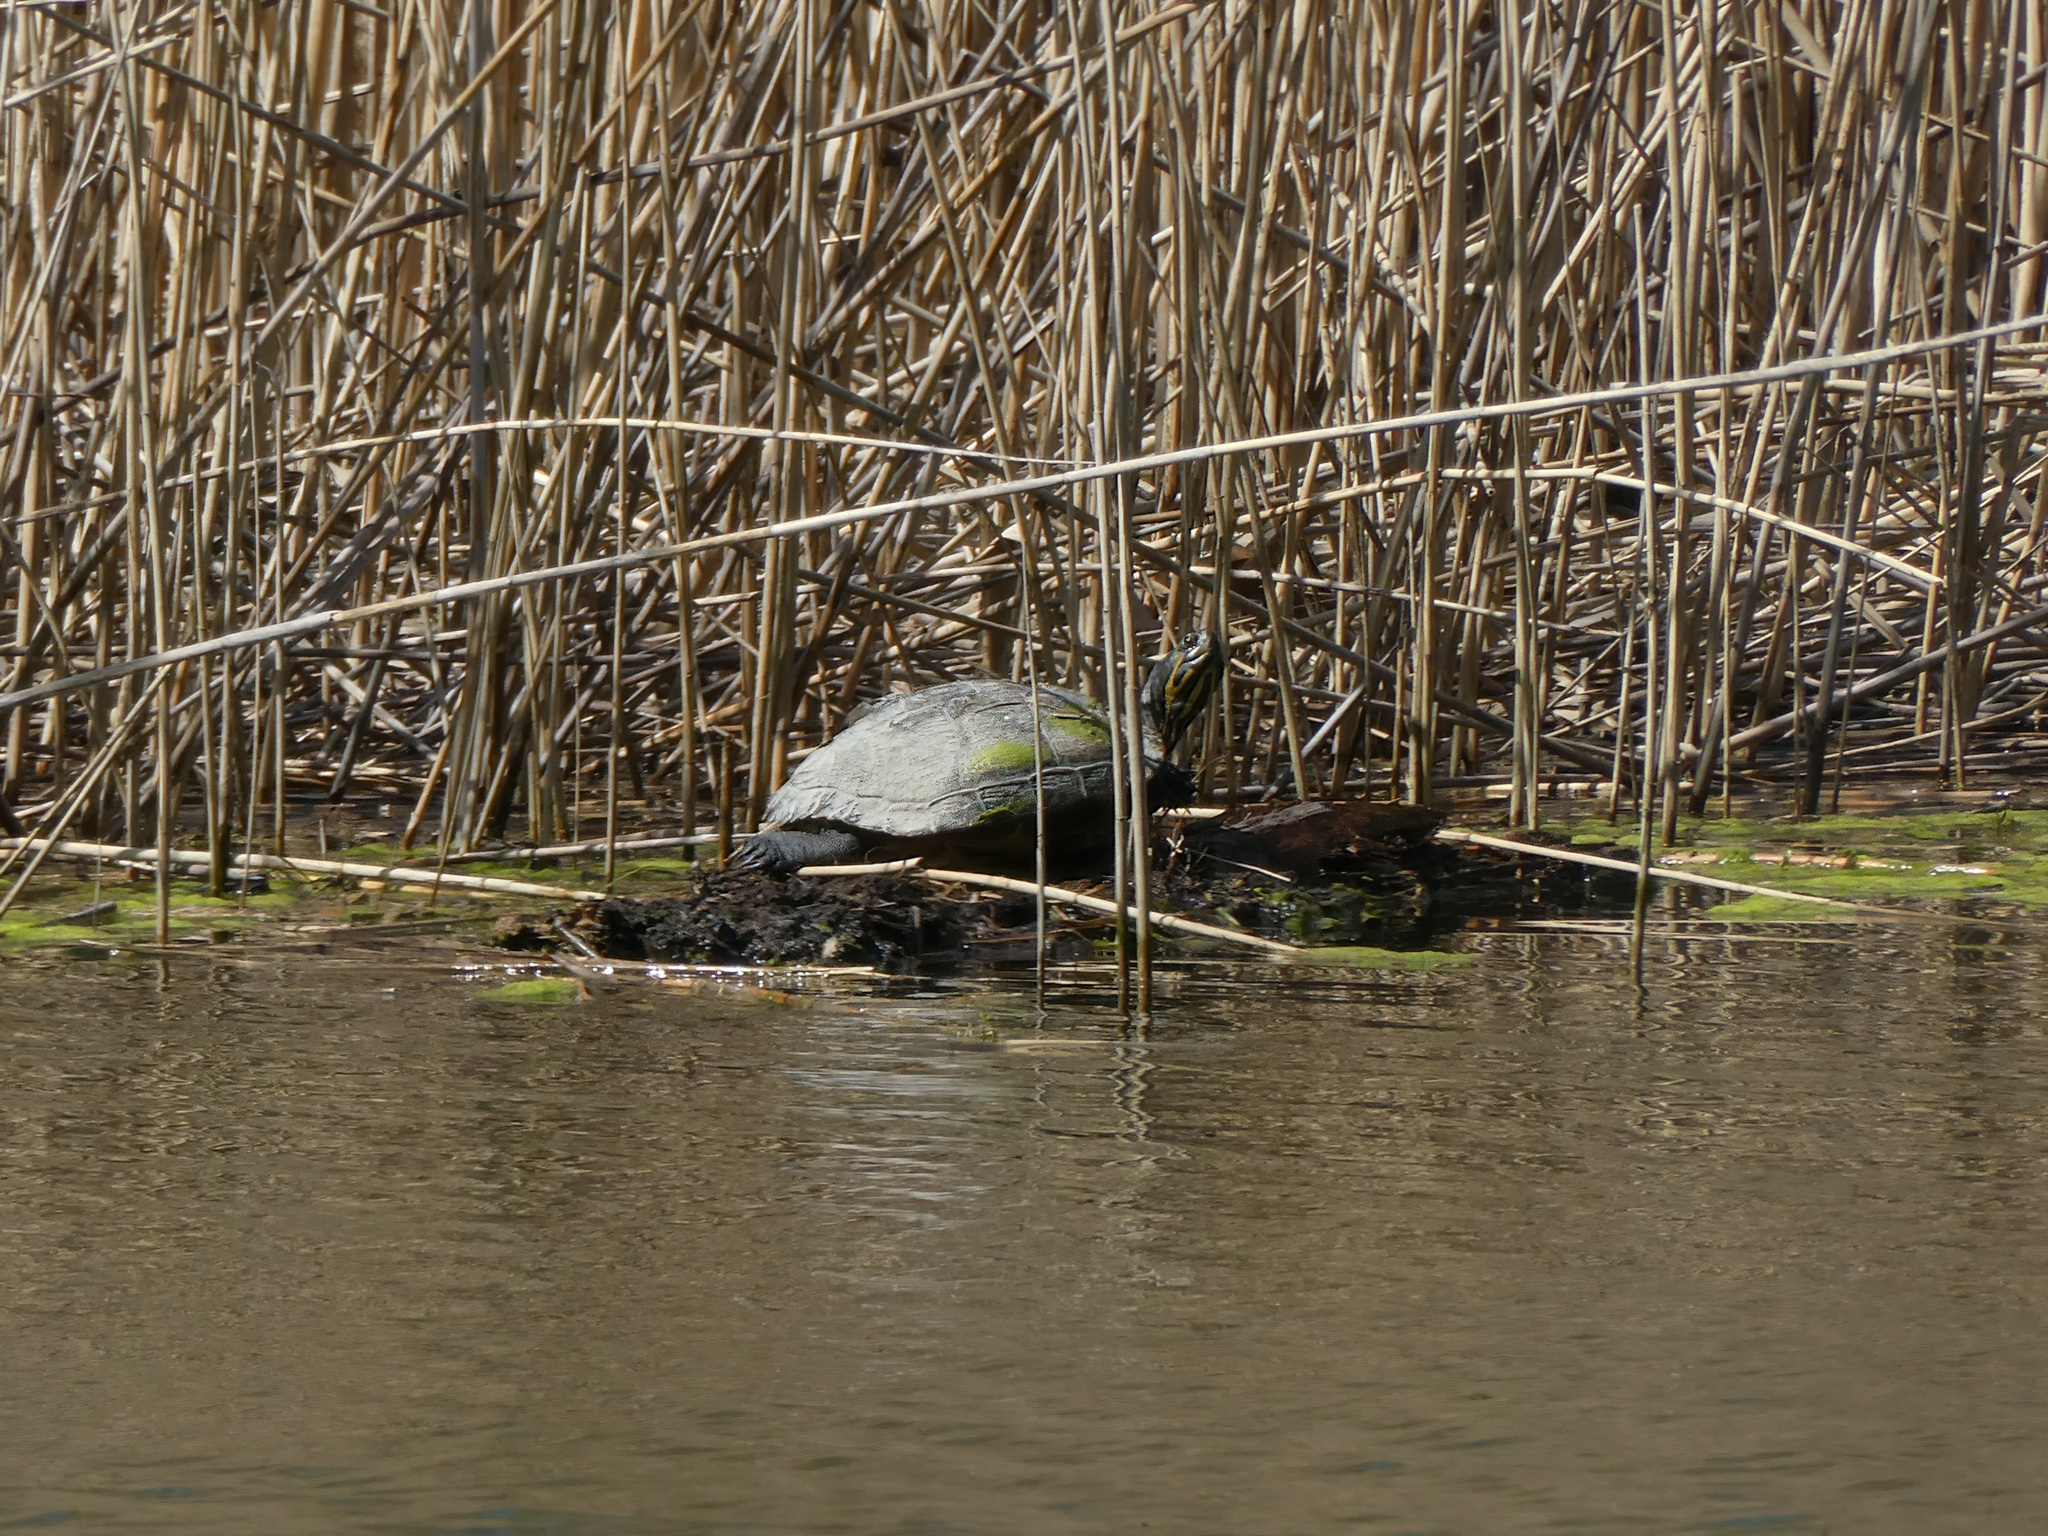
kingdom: Animalia
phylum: Chordata
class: Testudines
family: Emydidae
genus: Trachemys
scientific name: Trachemys scripta
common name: Slider
